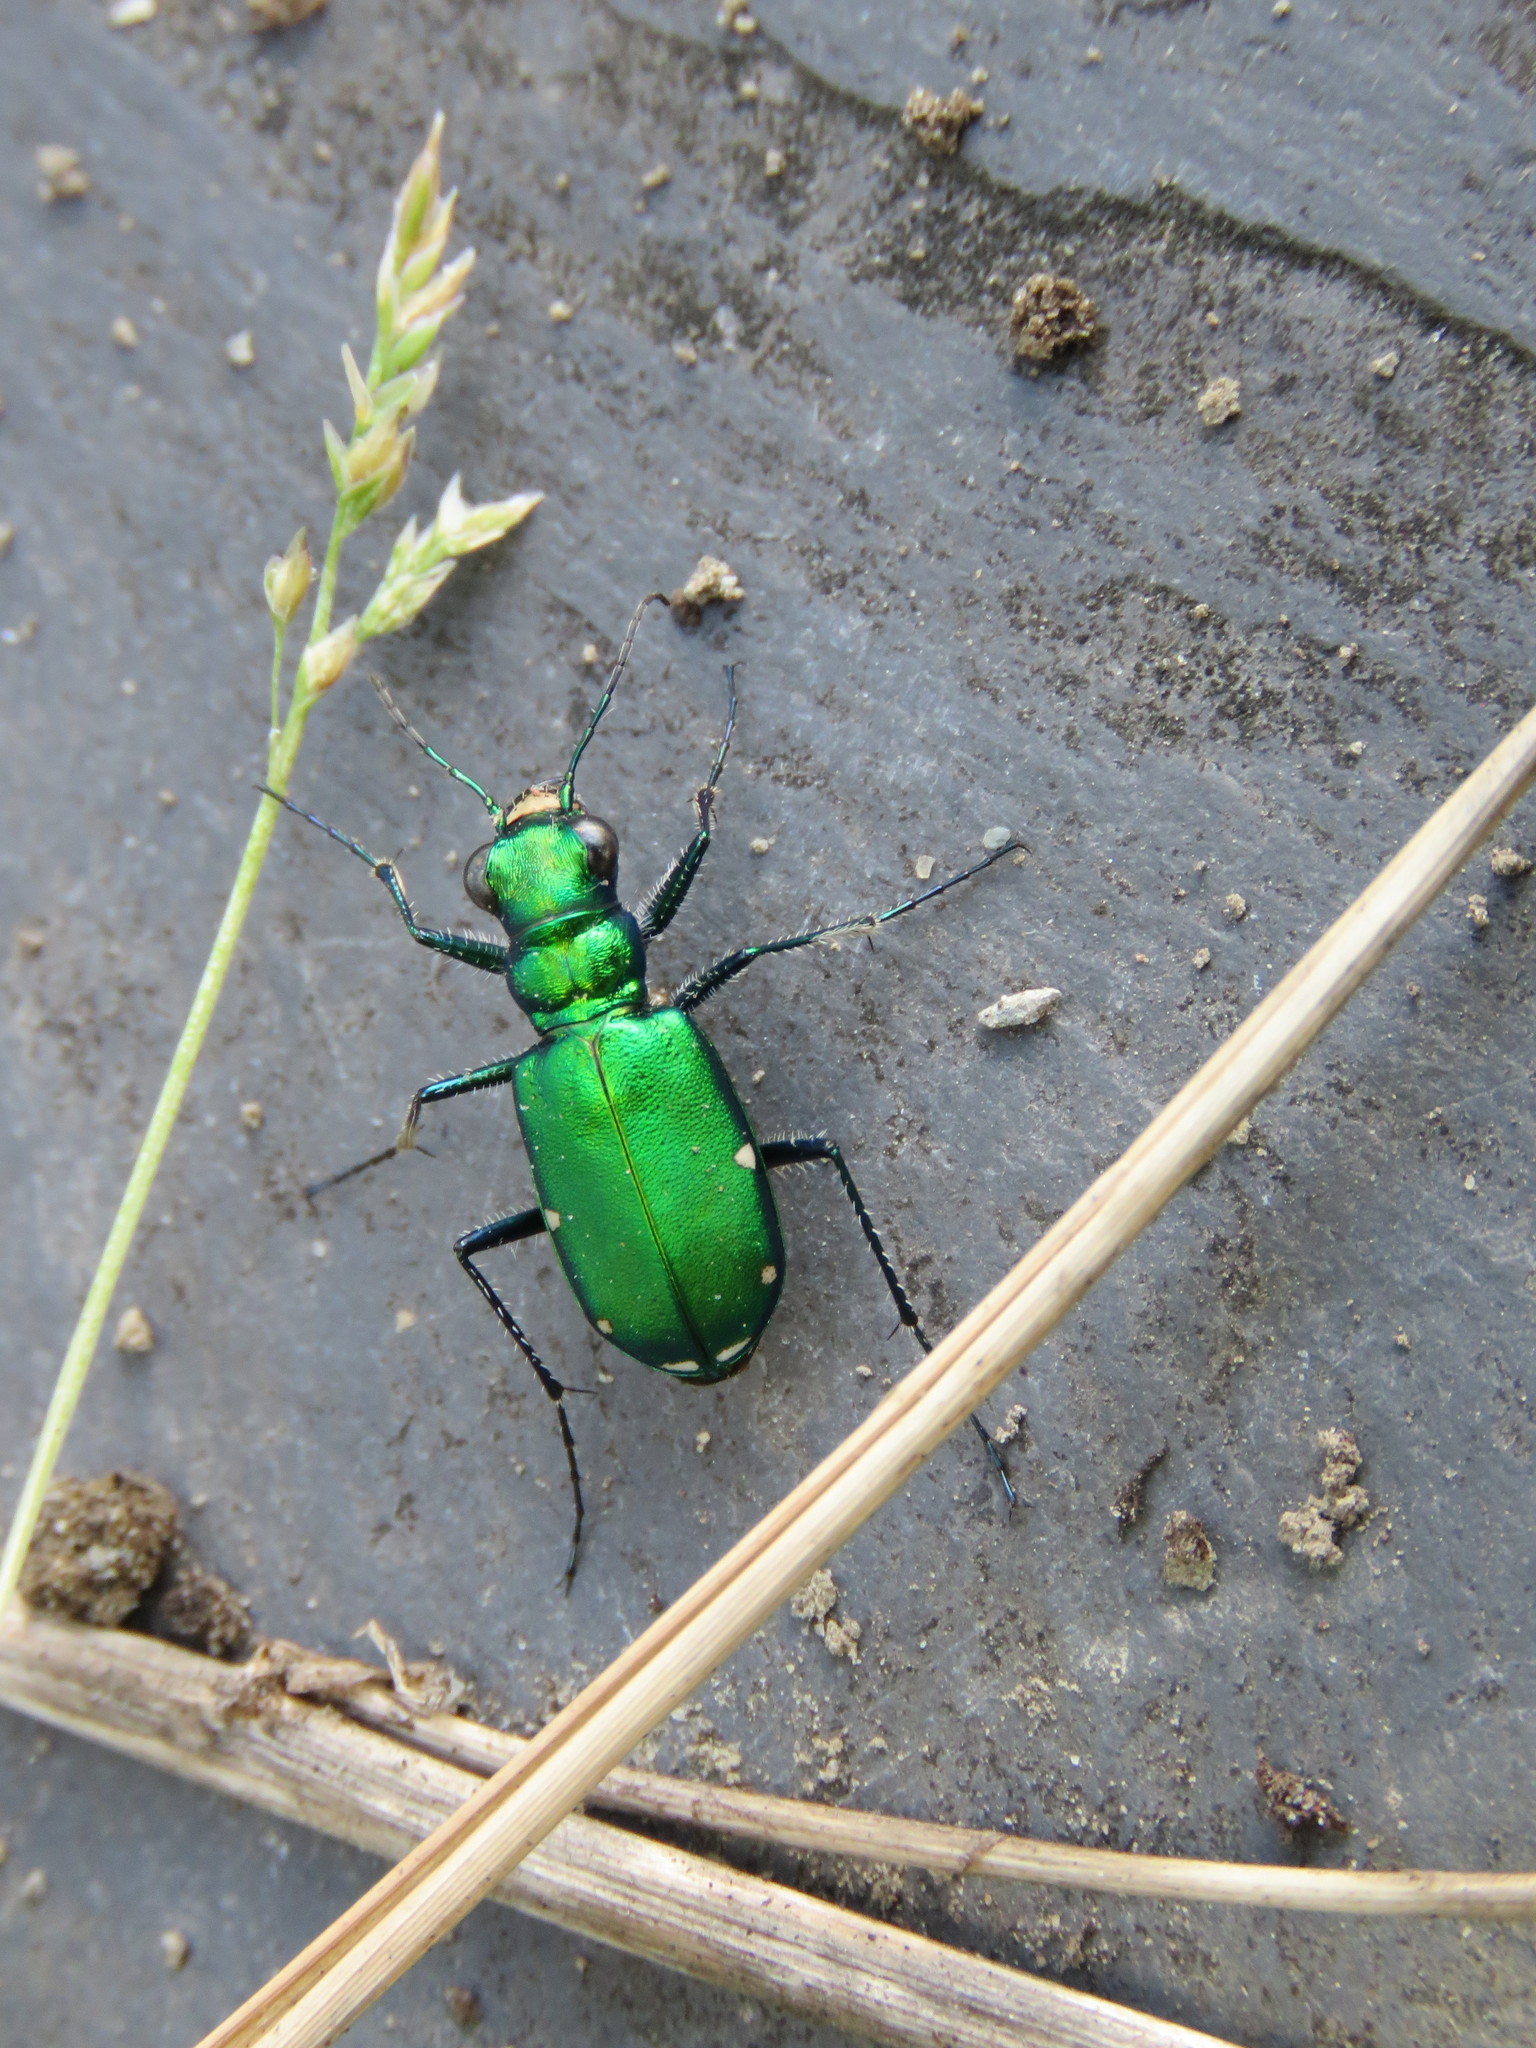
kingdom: Animalia
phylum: Arthropoda
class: Insecta
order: Coleoptera
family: Carabidae
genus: Cicindela
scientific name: Cicindela sexguttata
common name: Six-spotted tiger beetle
